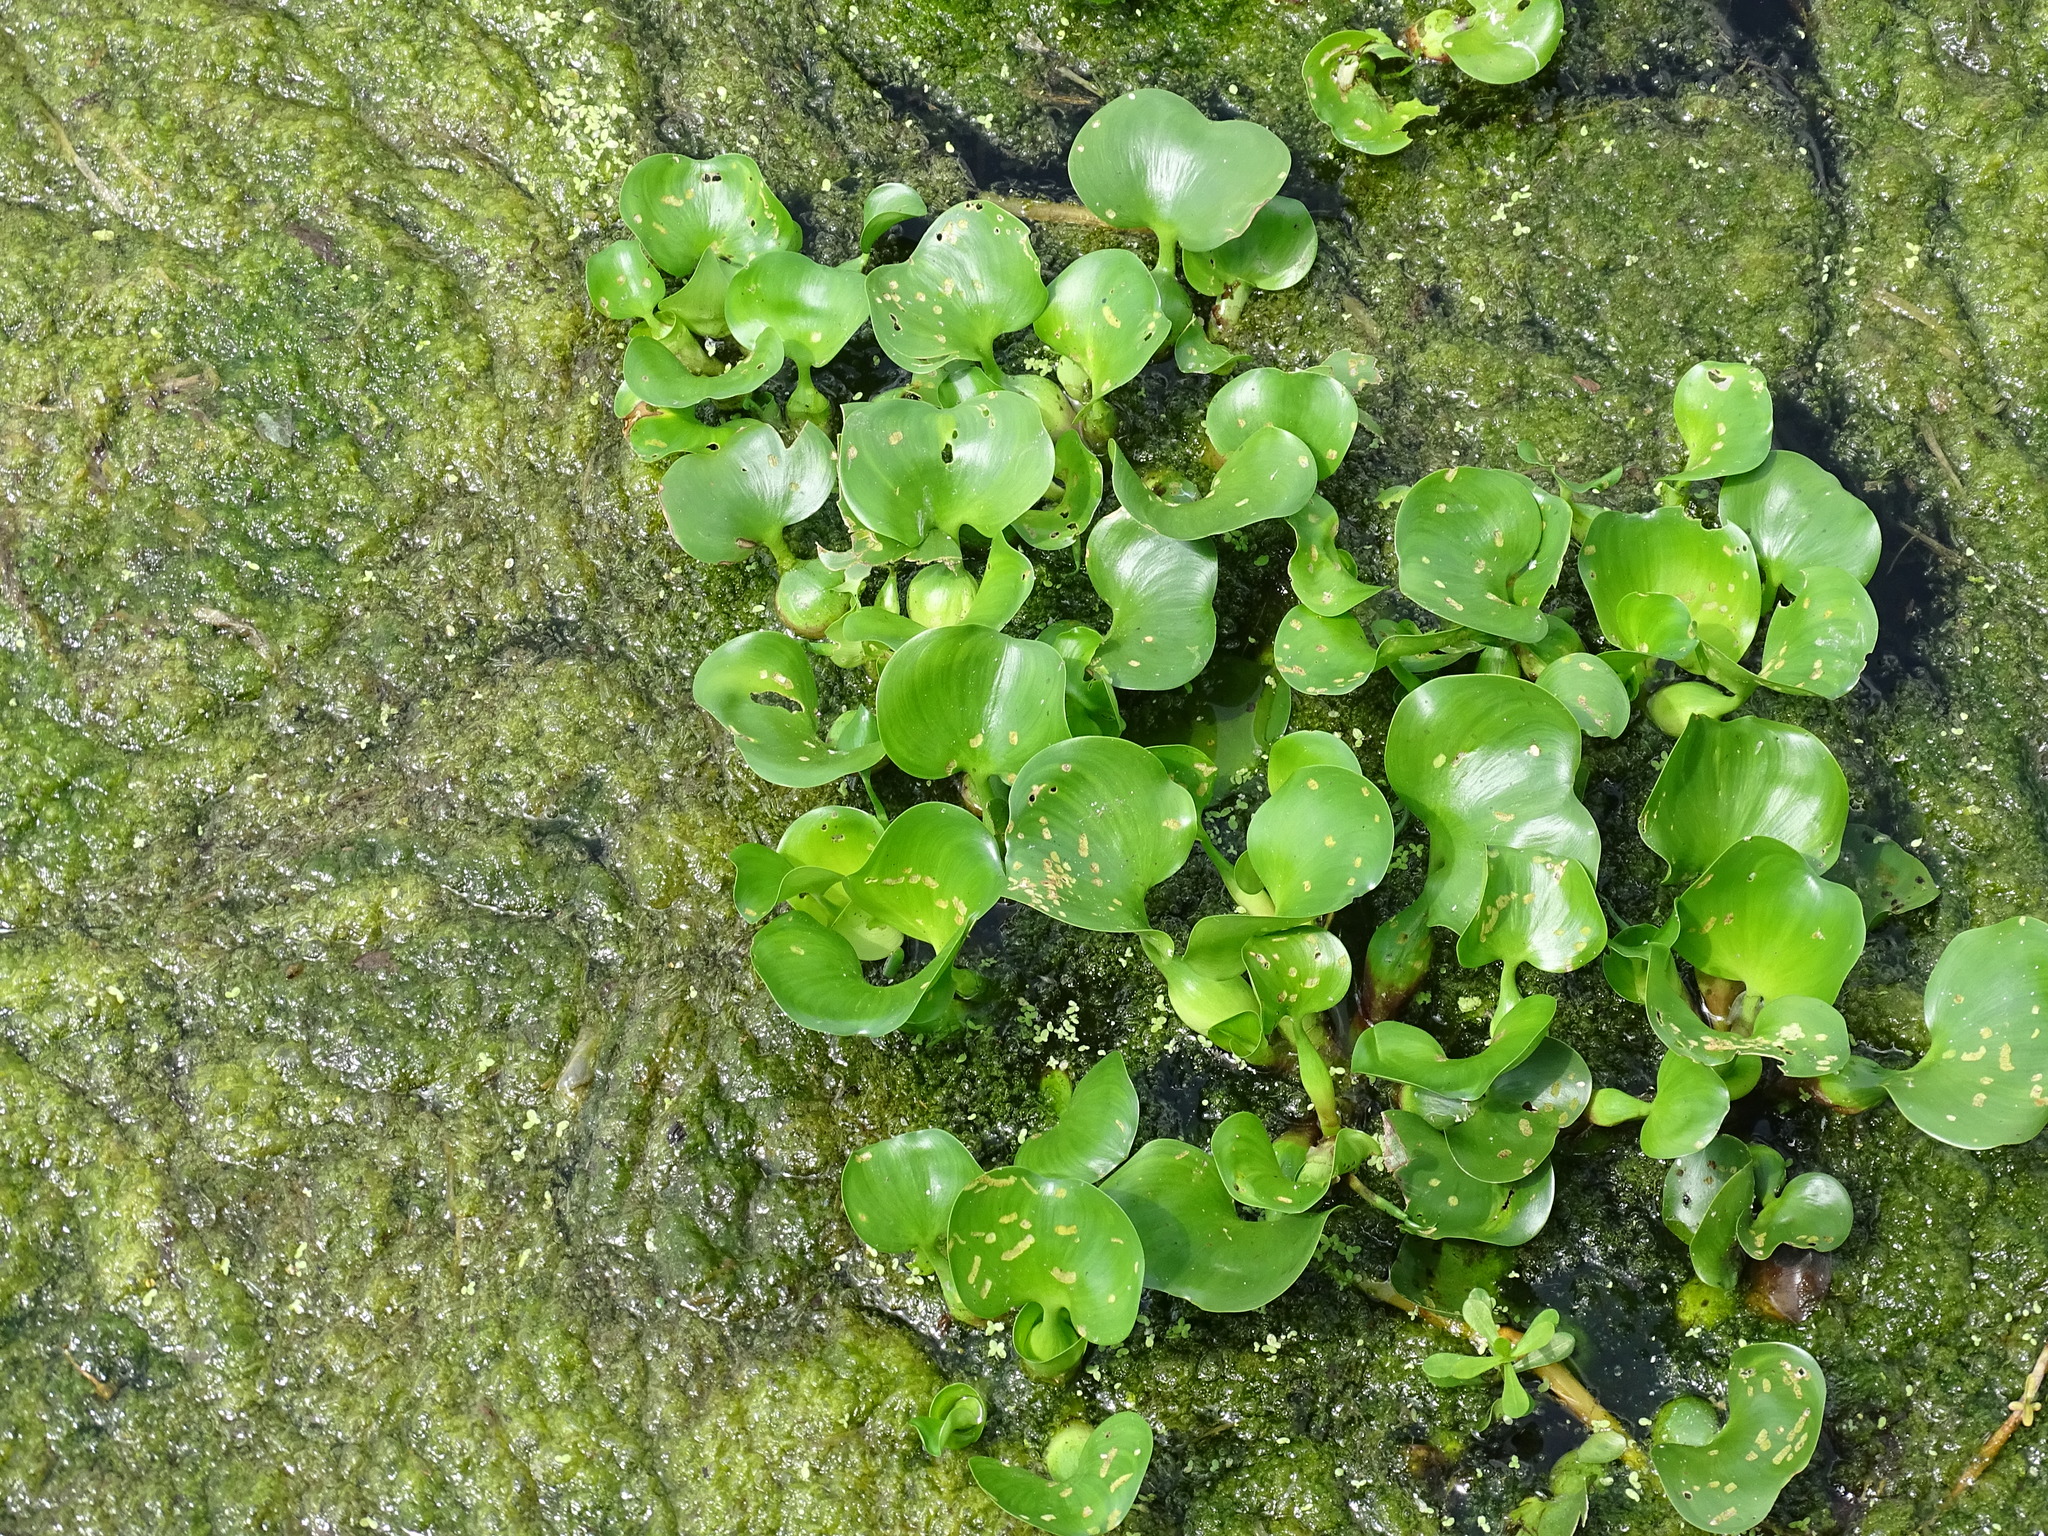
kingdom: Plantae
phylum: Tracheophyta
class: Liliopsida
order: Commelinales
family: Pontederiaceae
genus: Pontederia
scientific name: Pontederia crassipes
